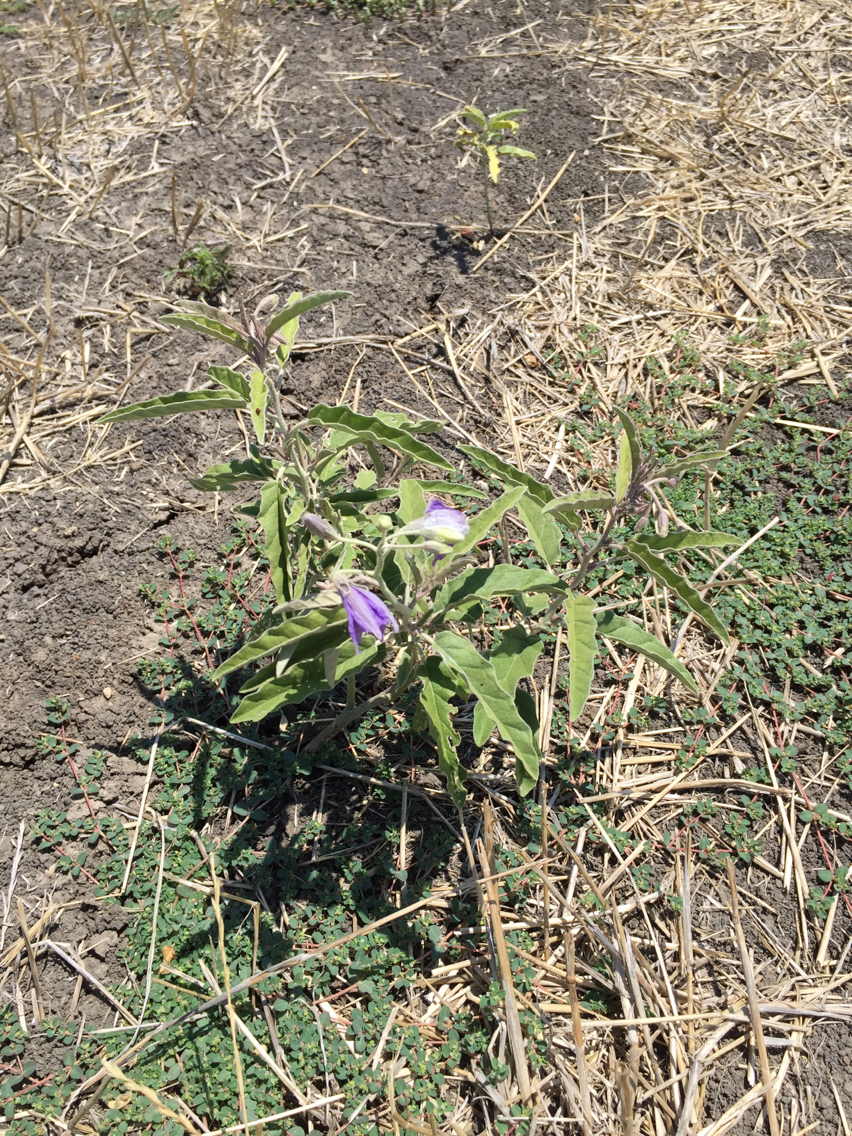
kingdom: Plantae
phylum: Tracheophyta
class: Magnoliopsida
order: Solanales
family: Solanaceae
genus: Solanum
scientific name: Solanum elaeagnifolium
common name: Silverleaf nightshade
